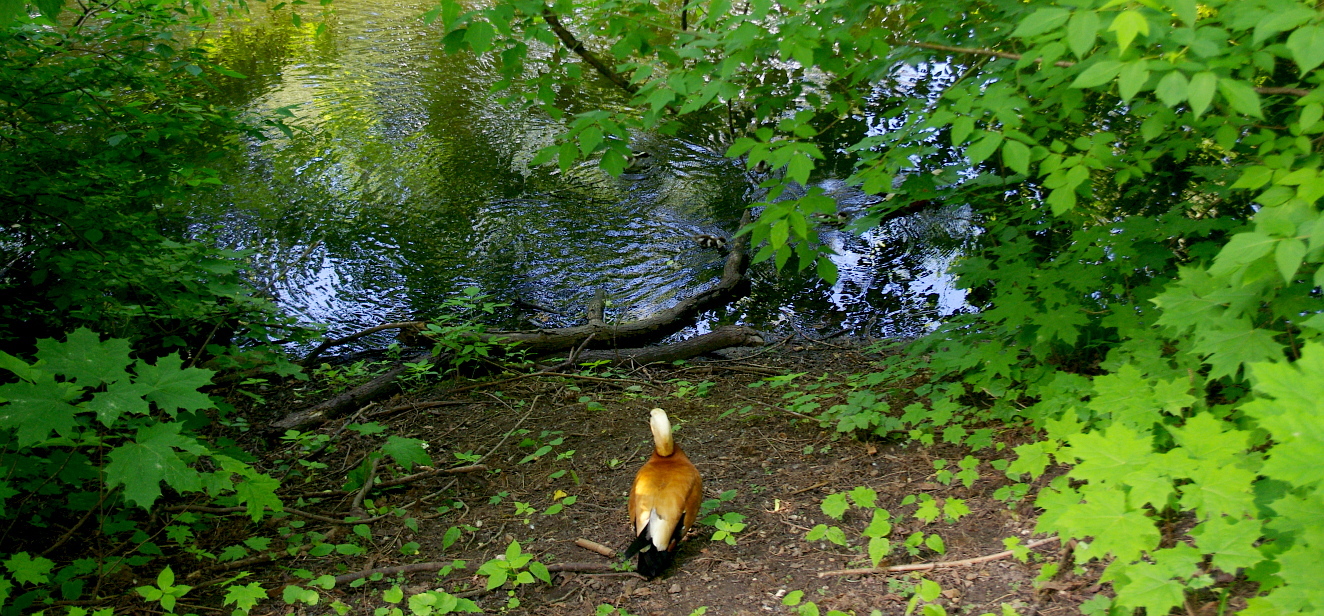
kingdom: Plantae
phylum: Tracheophyta
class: Magnoliopsida
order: Sapindales
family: Sapindaceae
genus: Acer
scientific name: Acer negundo
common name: Ashleaf maple
